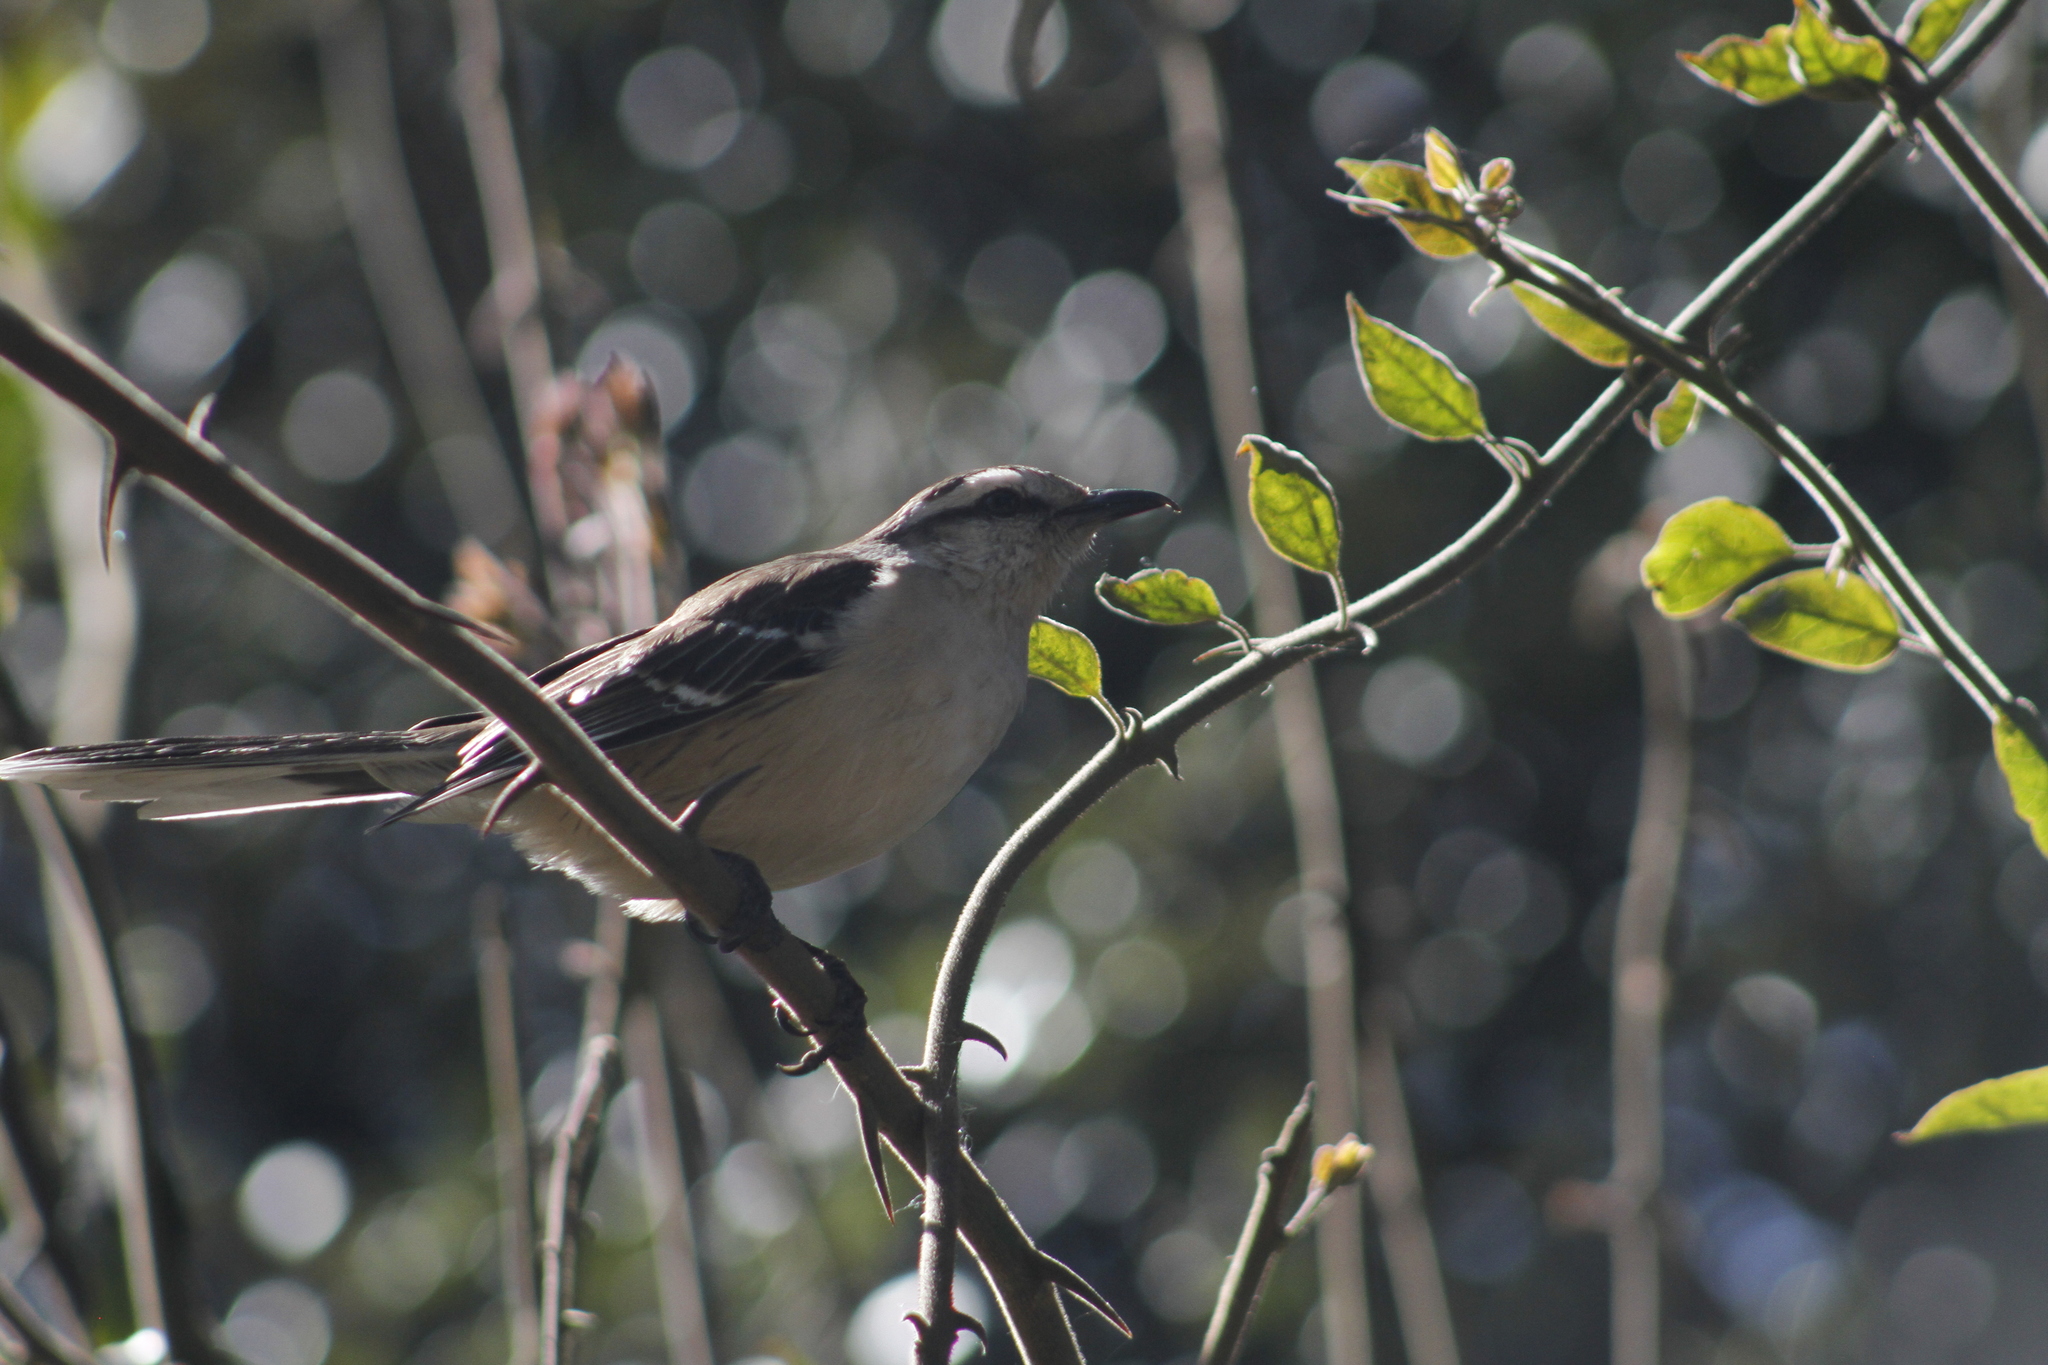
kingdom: Animalia
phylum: Chordata
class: Aves
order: Passeriformes
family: Mimidae
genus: Mimus
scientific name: Mimus saturninus
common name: Chalk-browed mockingbird
